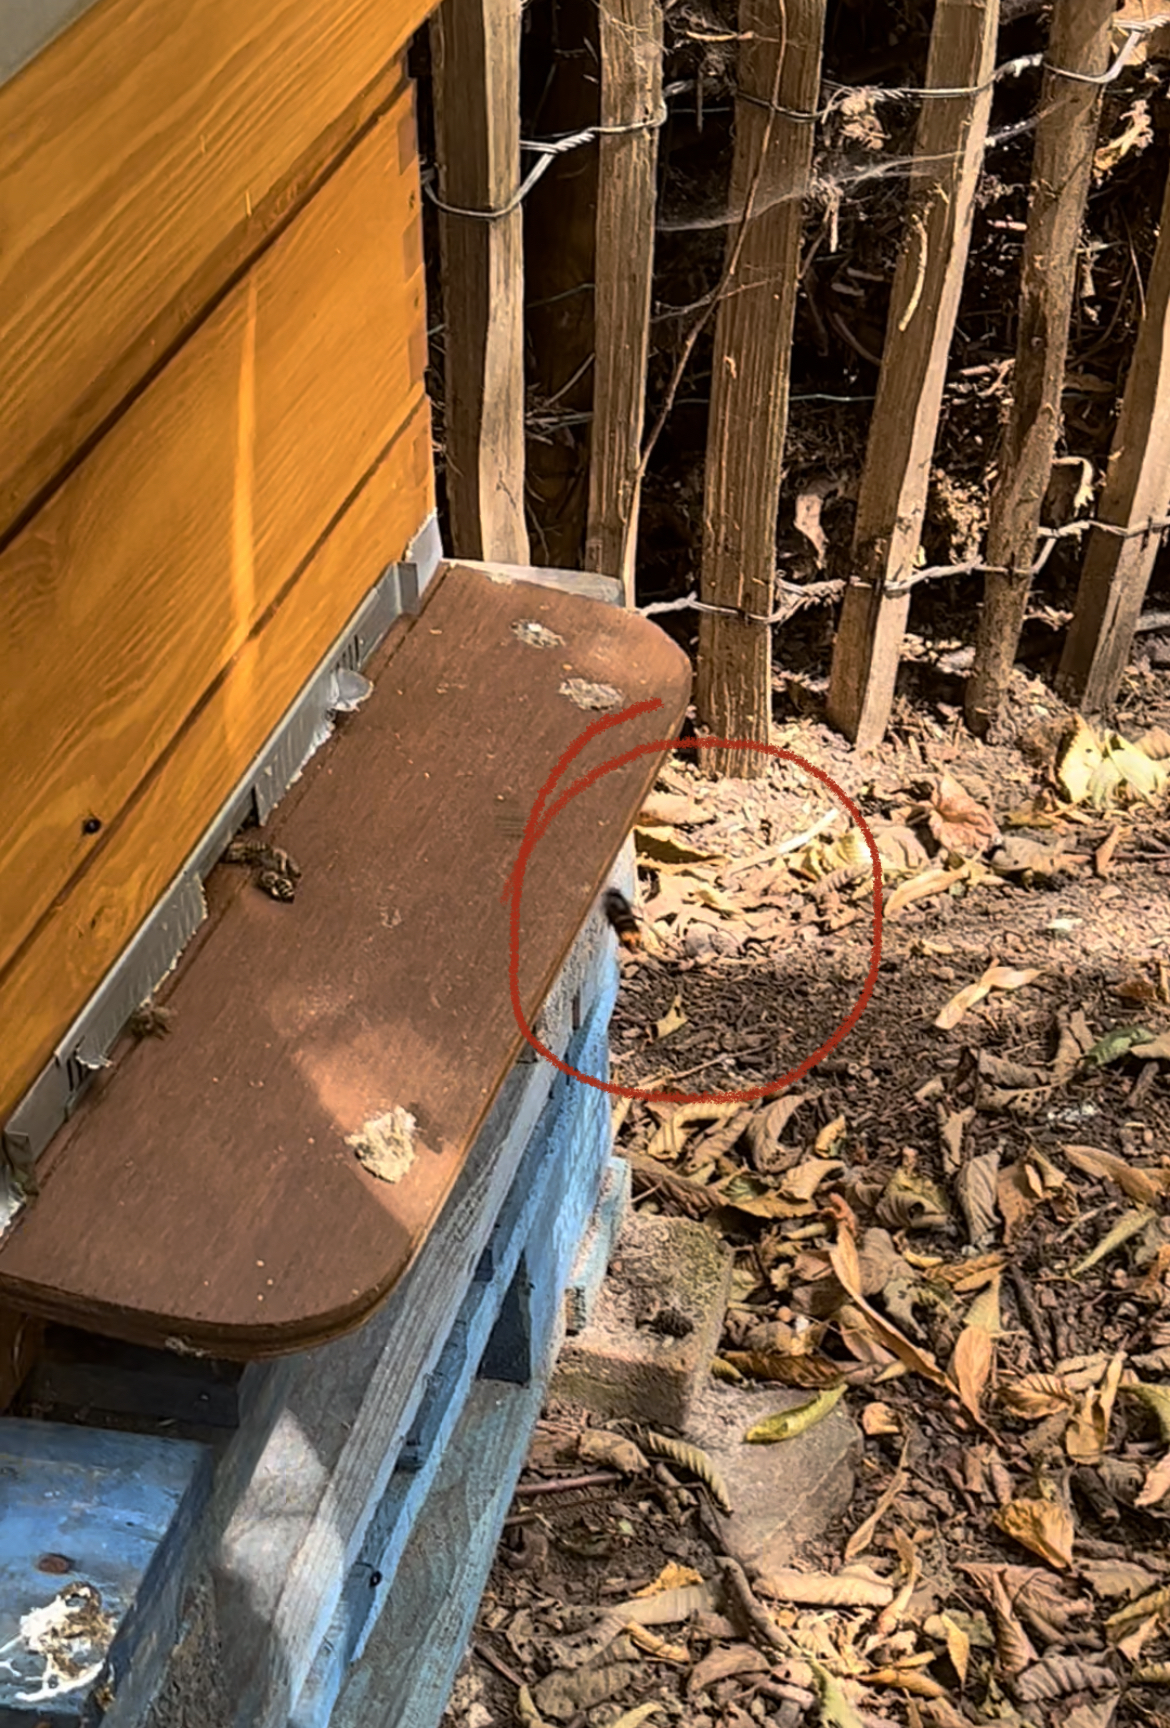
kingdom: Animalia
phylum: Arthropoda
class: Insecta
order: Hymenoptera
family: Vespidae
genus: Vespa
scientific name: Vespa velutina
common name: Asian hornet
